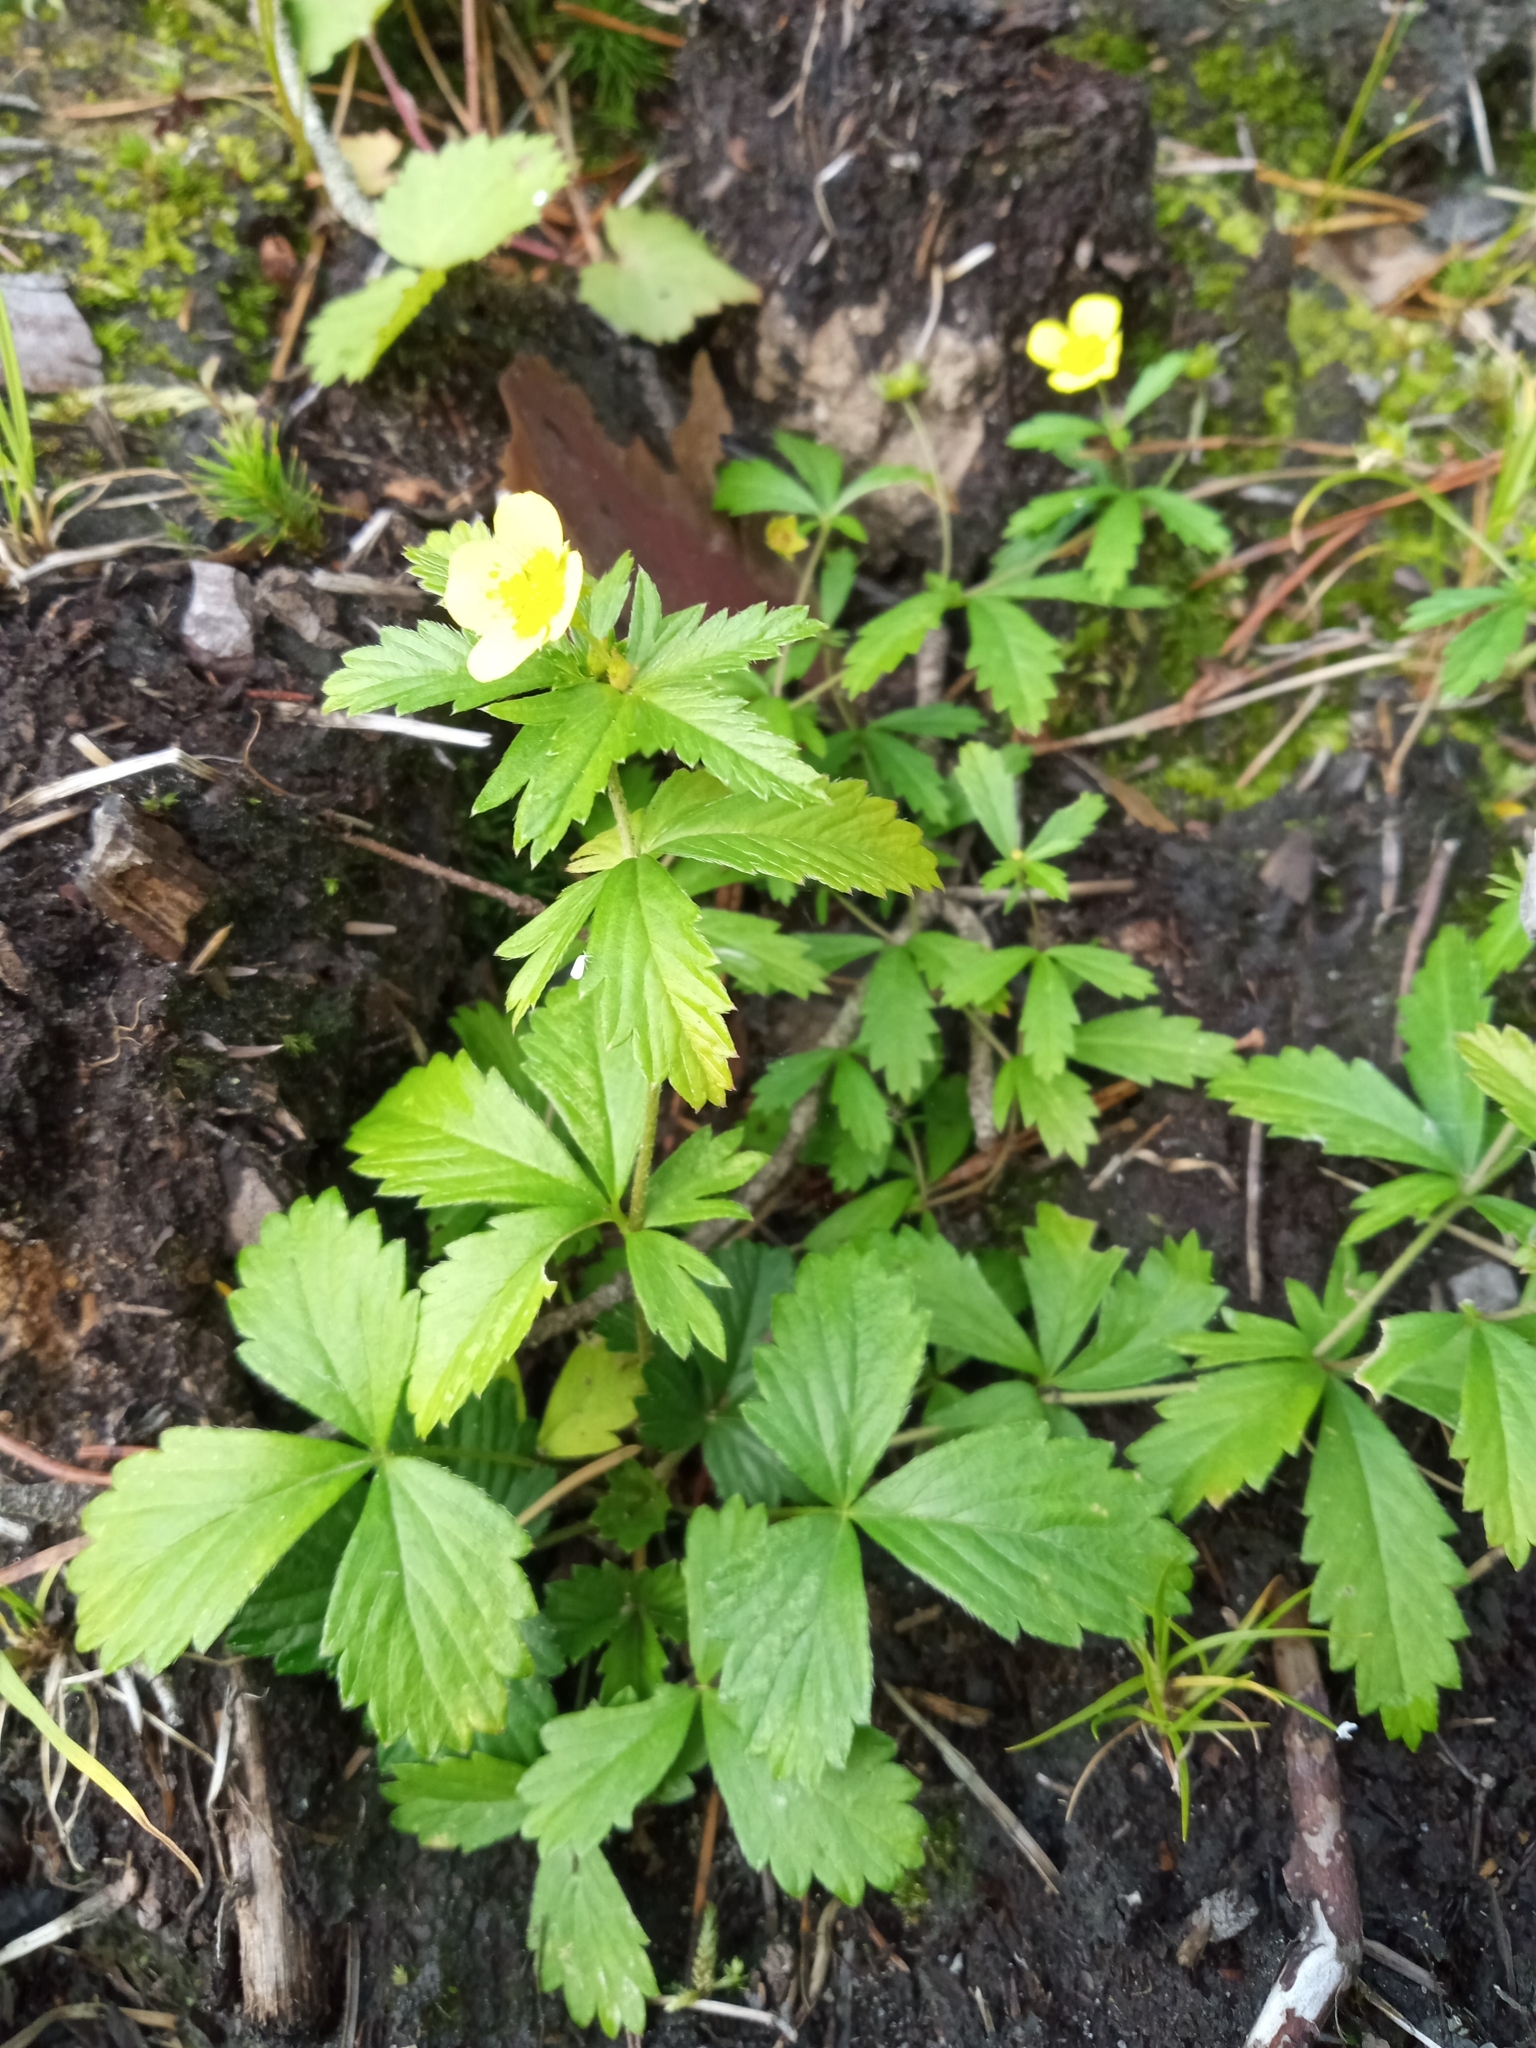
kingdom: Plantae
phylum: Tracheophyta
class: Magnoliopsida
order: Rosales
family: Rosaceae
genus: Potentilla
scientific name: Potentilla erecta
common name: Tormentil
